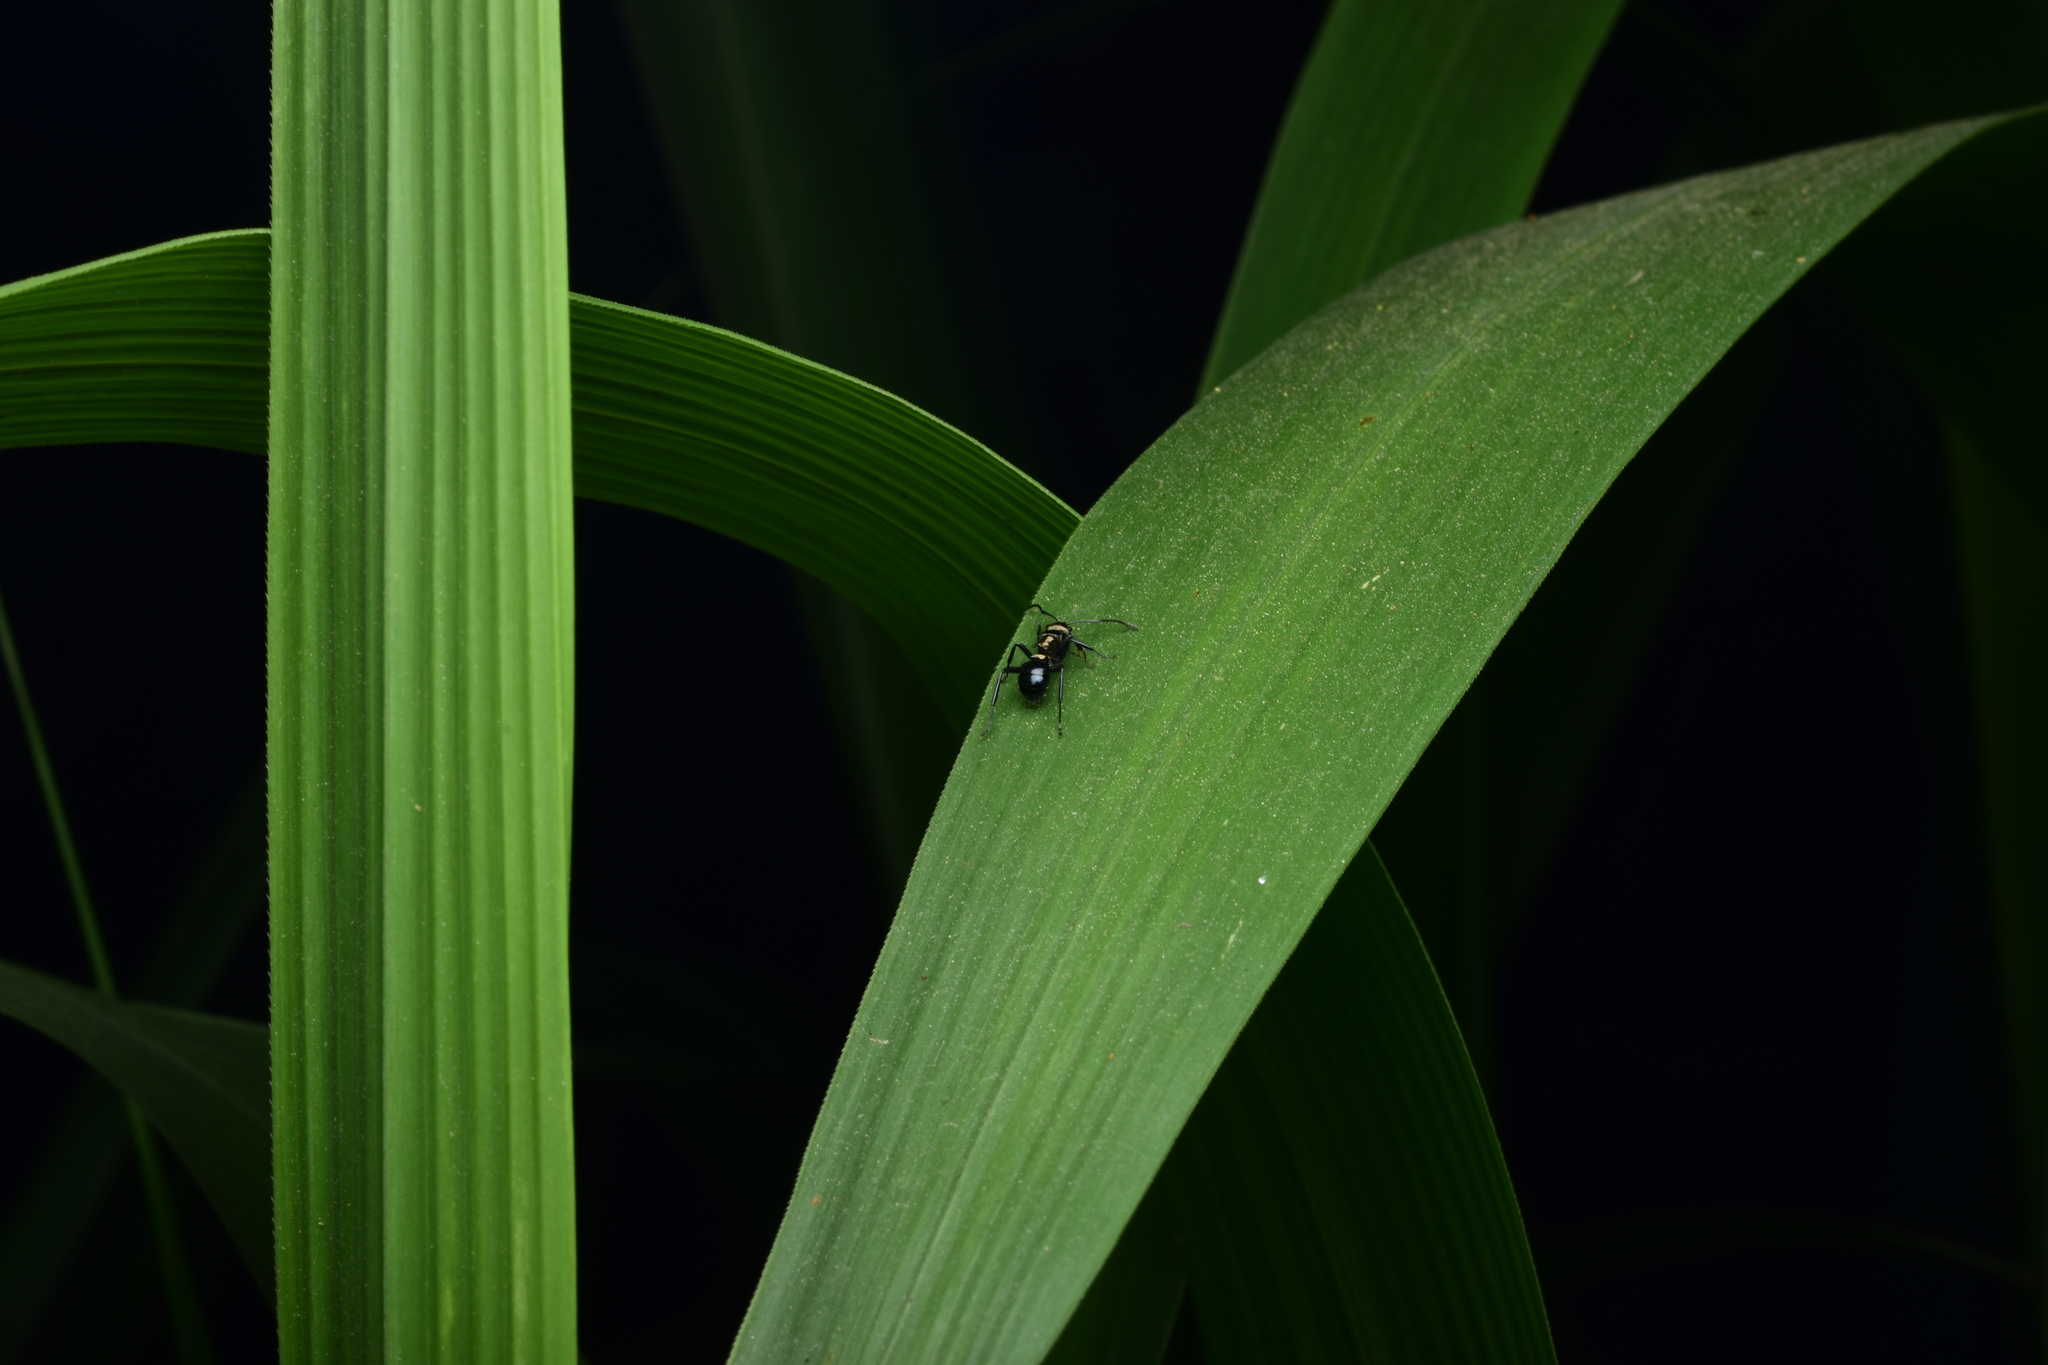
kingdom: Animalia
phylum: Arthropoda
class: Insecta
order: Hymenoptera
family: Formicidae
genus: Polyrhachis
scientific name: Polyrhachis cleopatra
